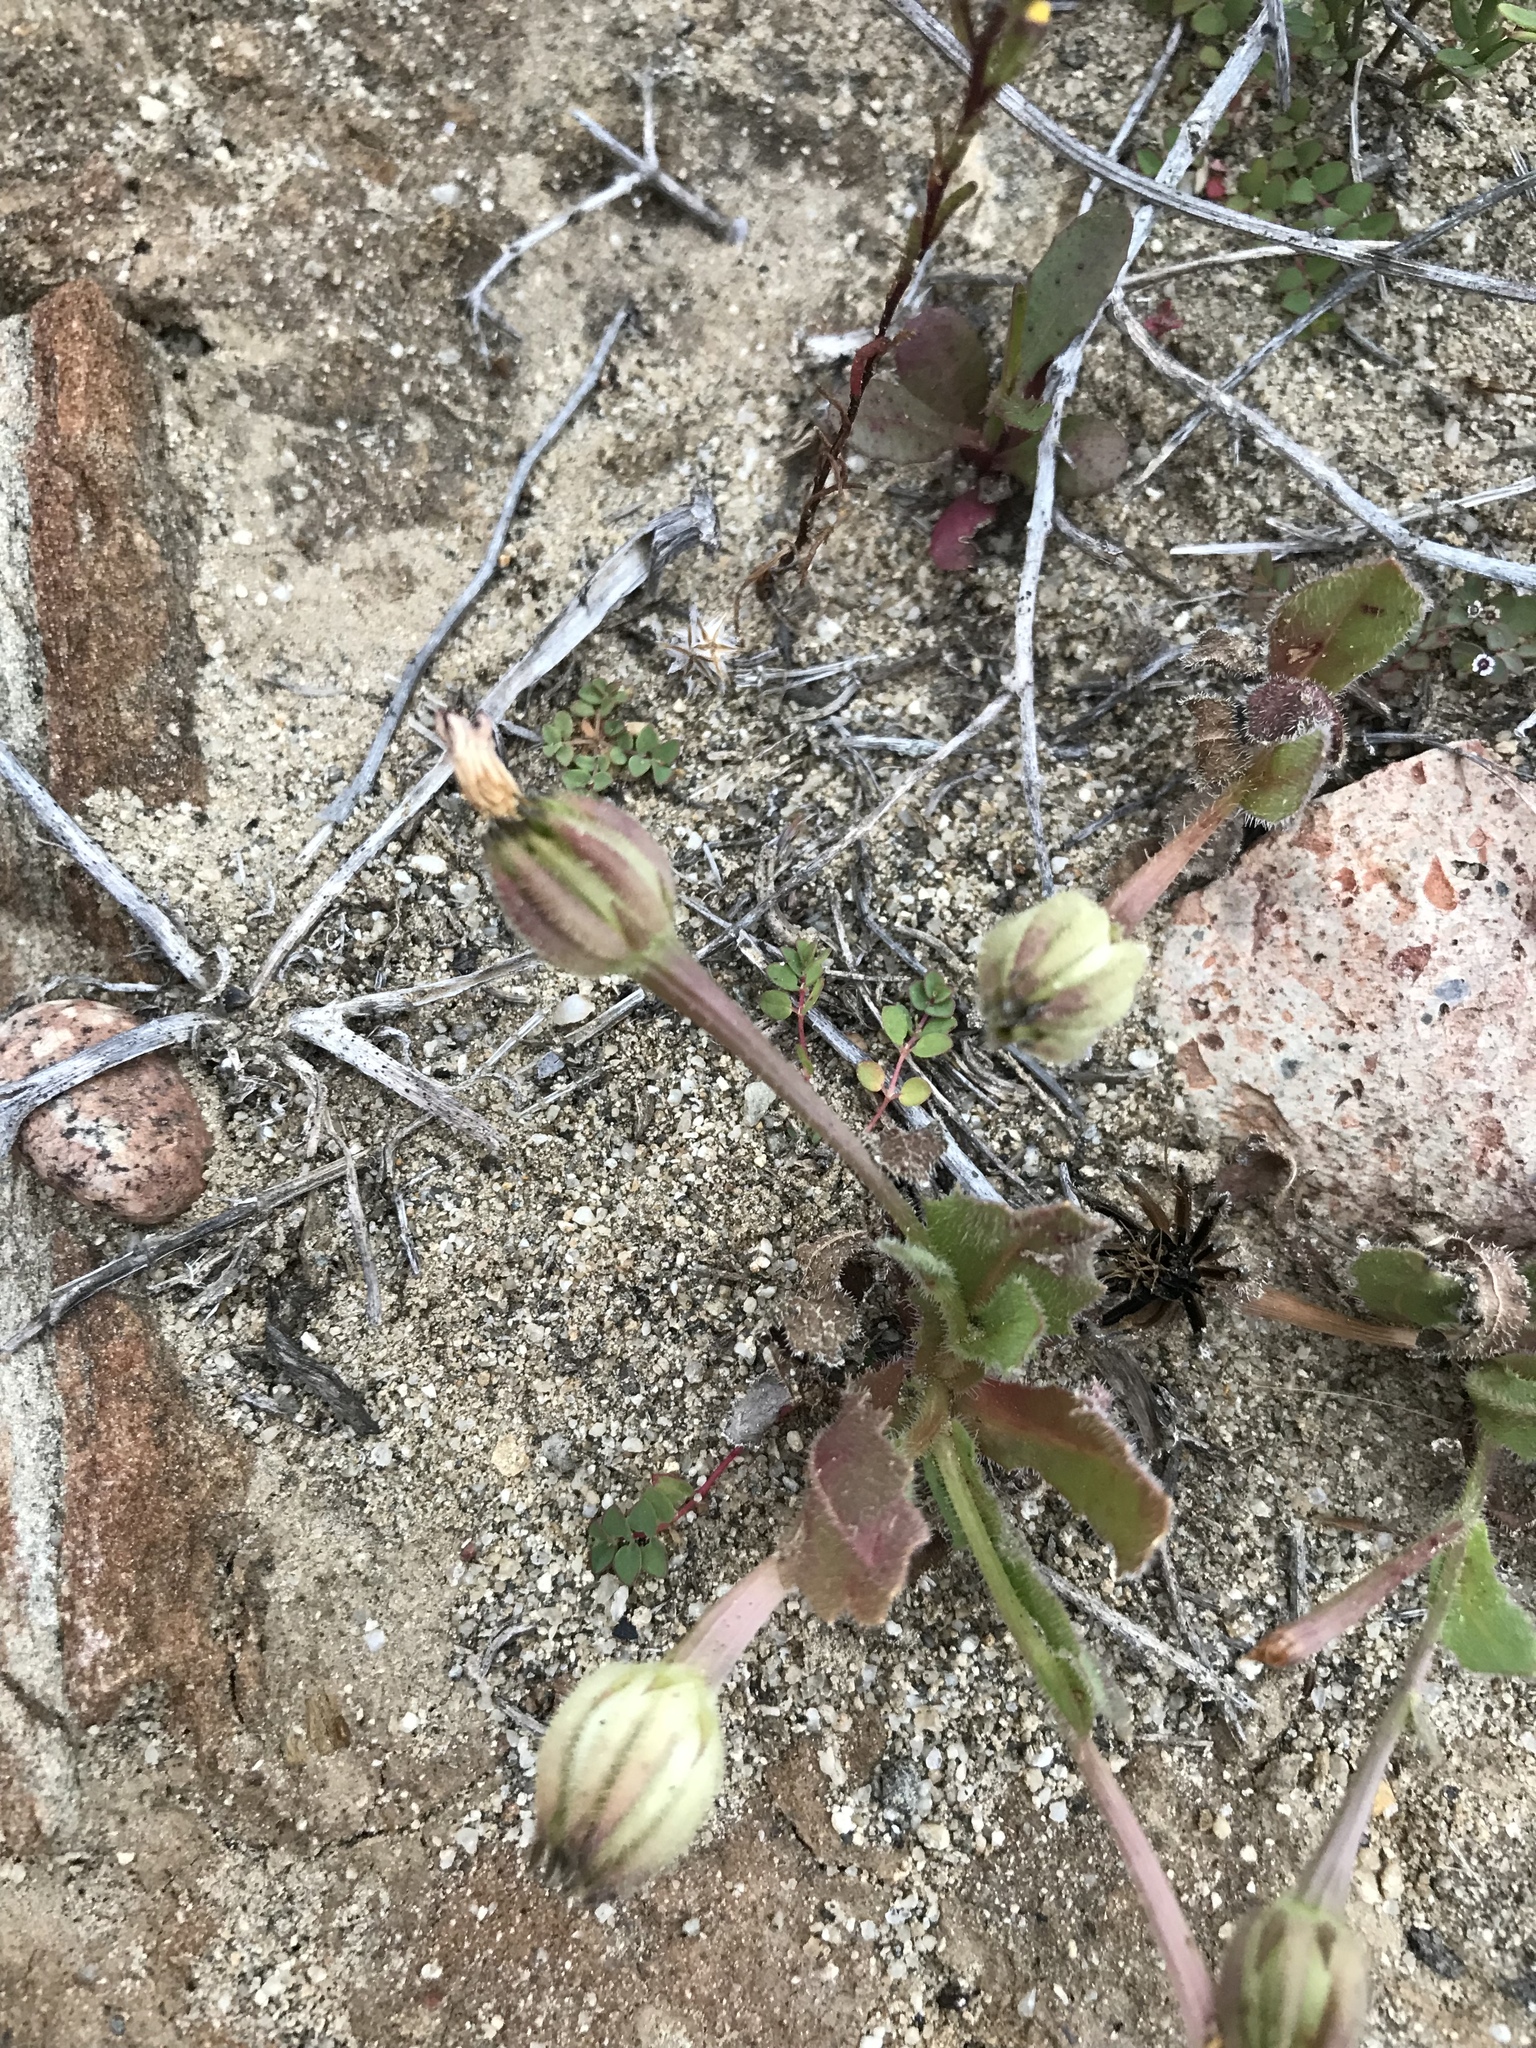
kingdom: Plantae
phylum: Tracheophyta
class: Magnoliopsida
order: Asterales
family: Asteraceae
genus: Hedypnois
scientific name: Hedypnois rhagadioloides
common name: Cretan weed
